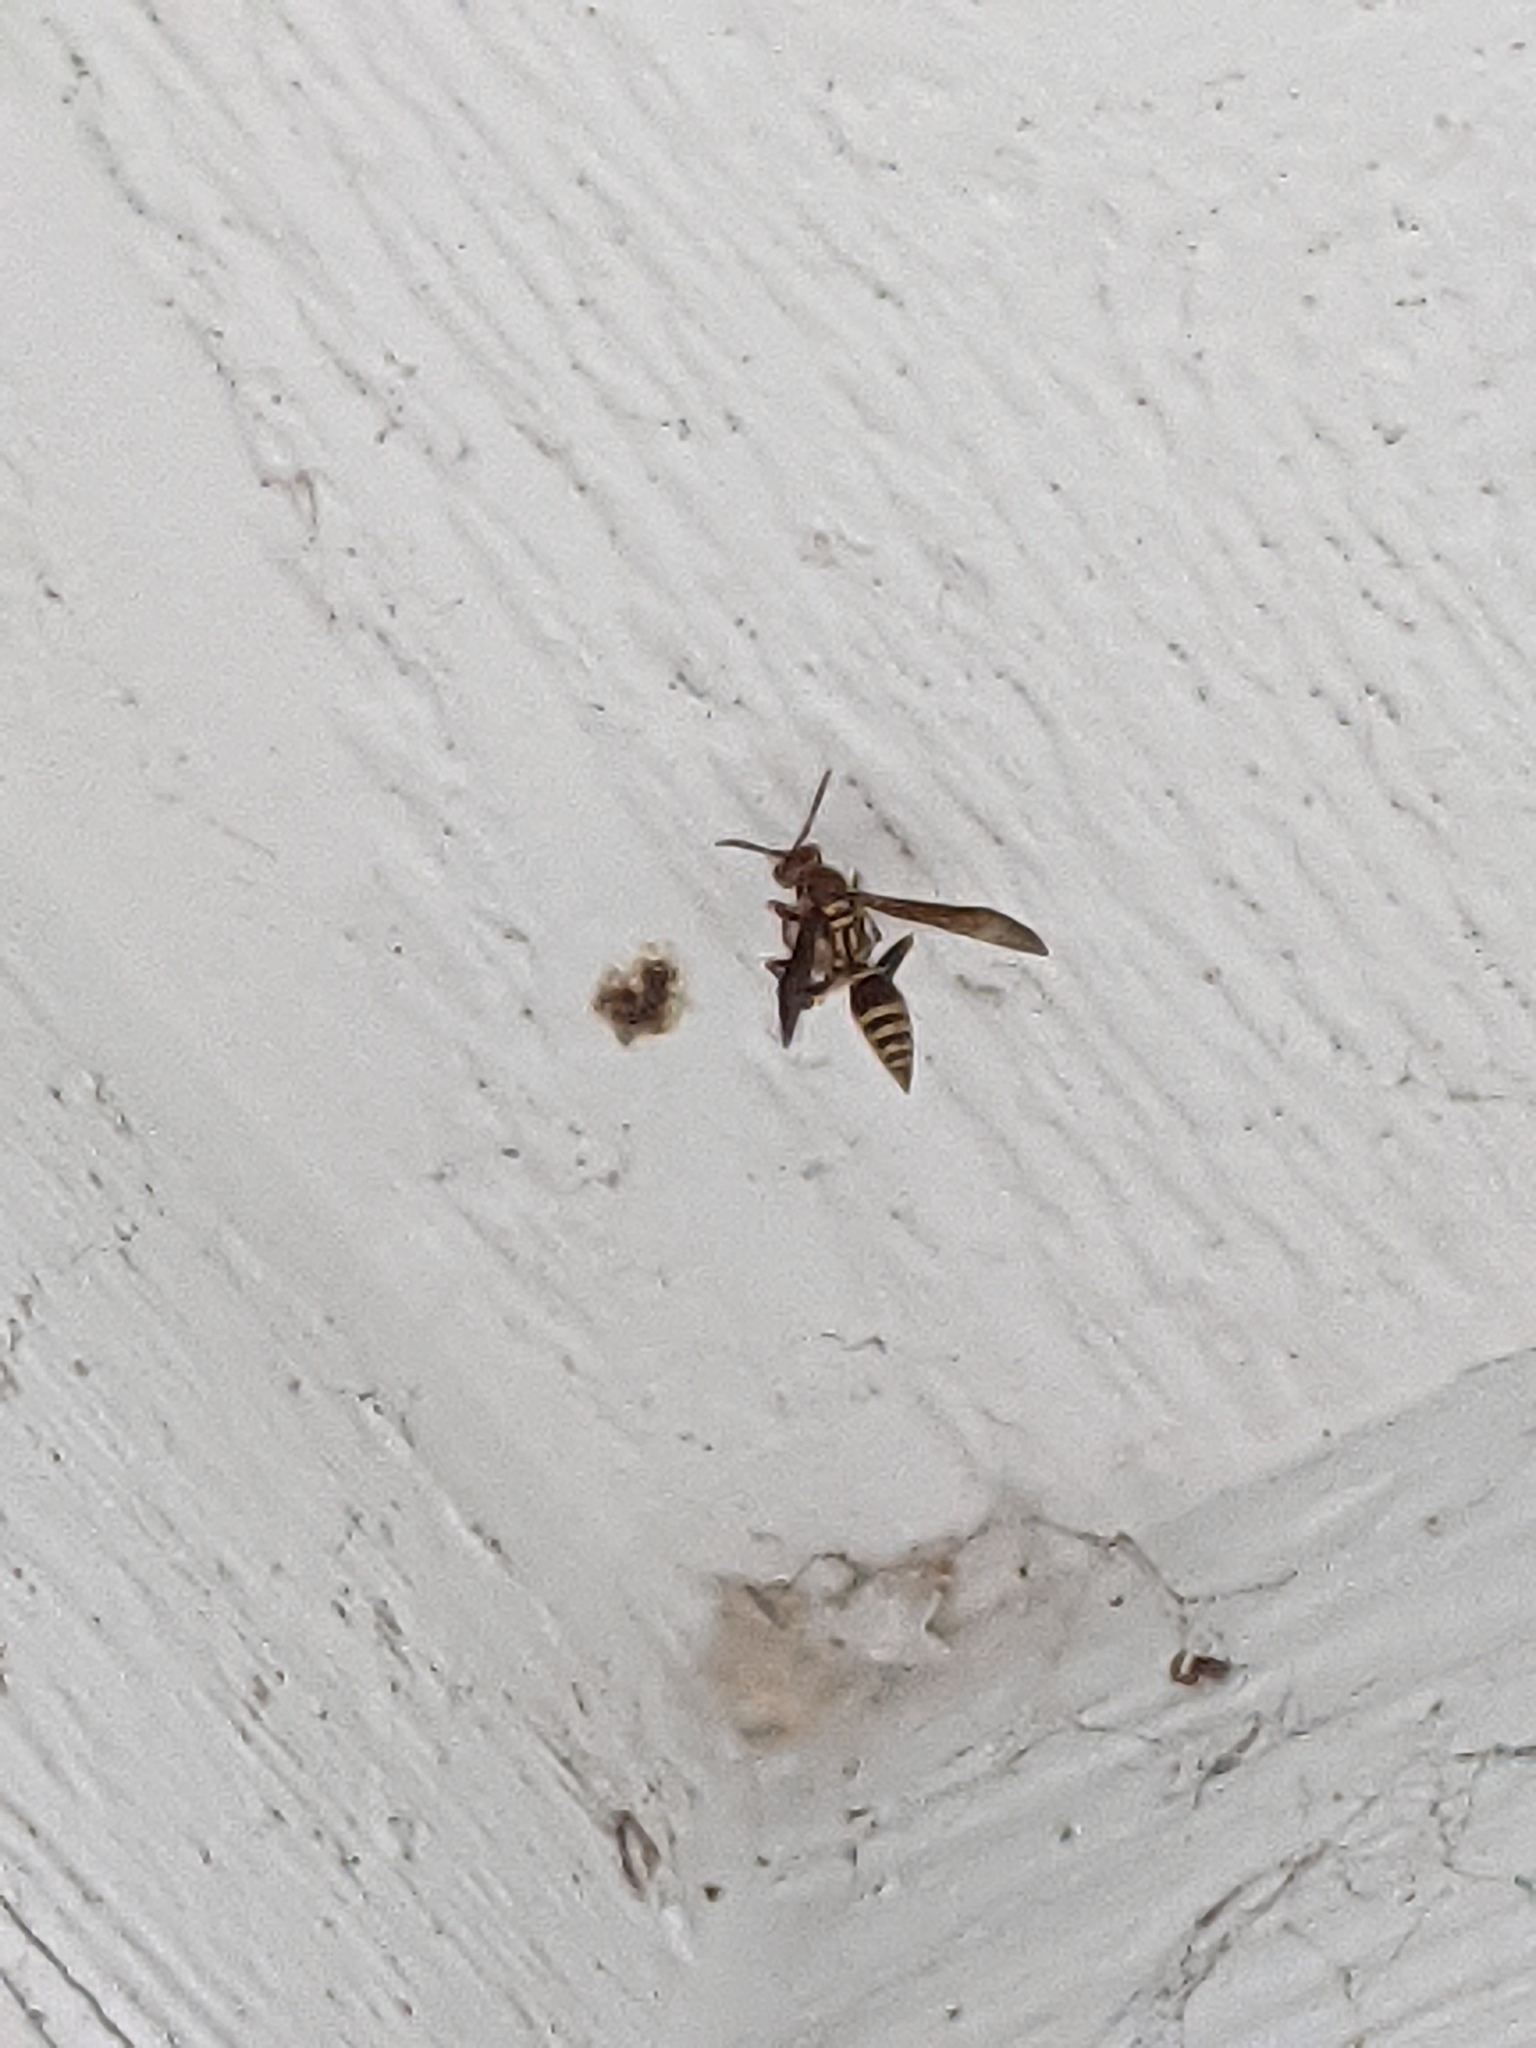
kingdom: Animalia
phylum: Arthropoda
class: Insecta
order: Hymenoptera
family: Eumenidae
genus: Polistes
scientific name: Polistes exclamans
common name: Paper wasp
